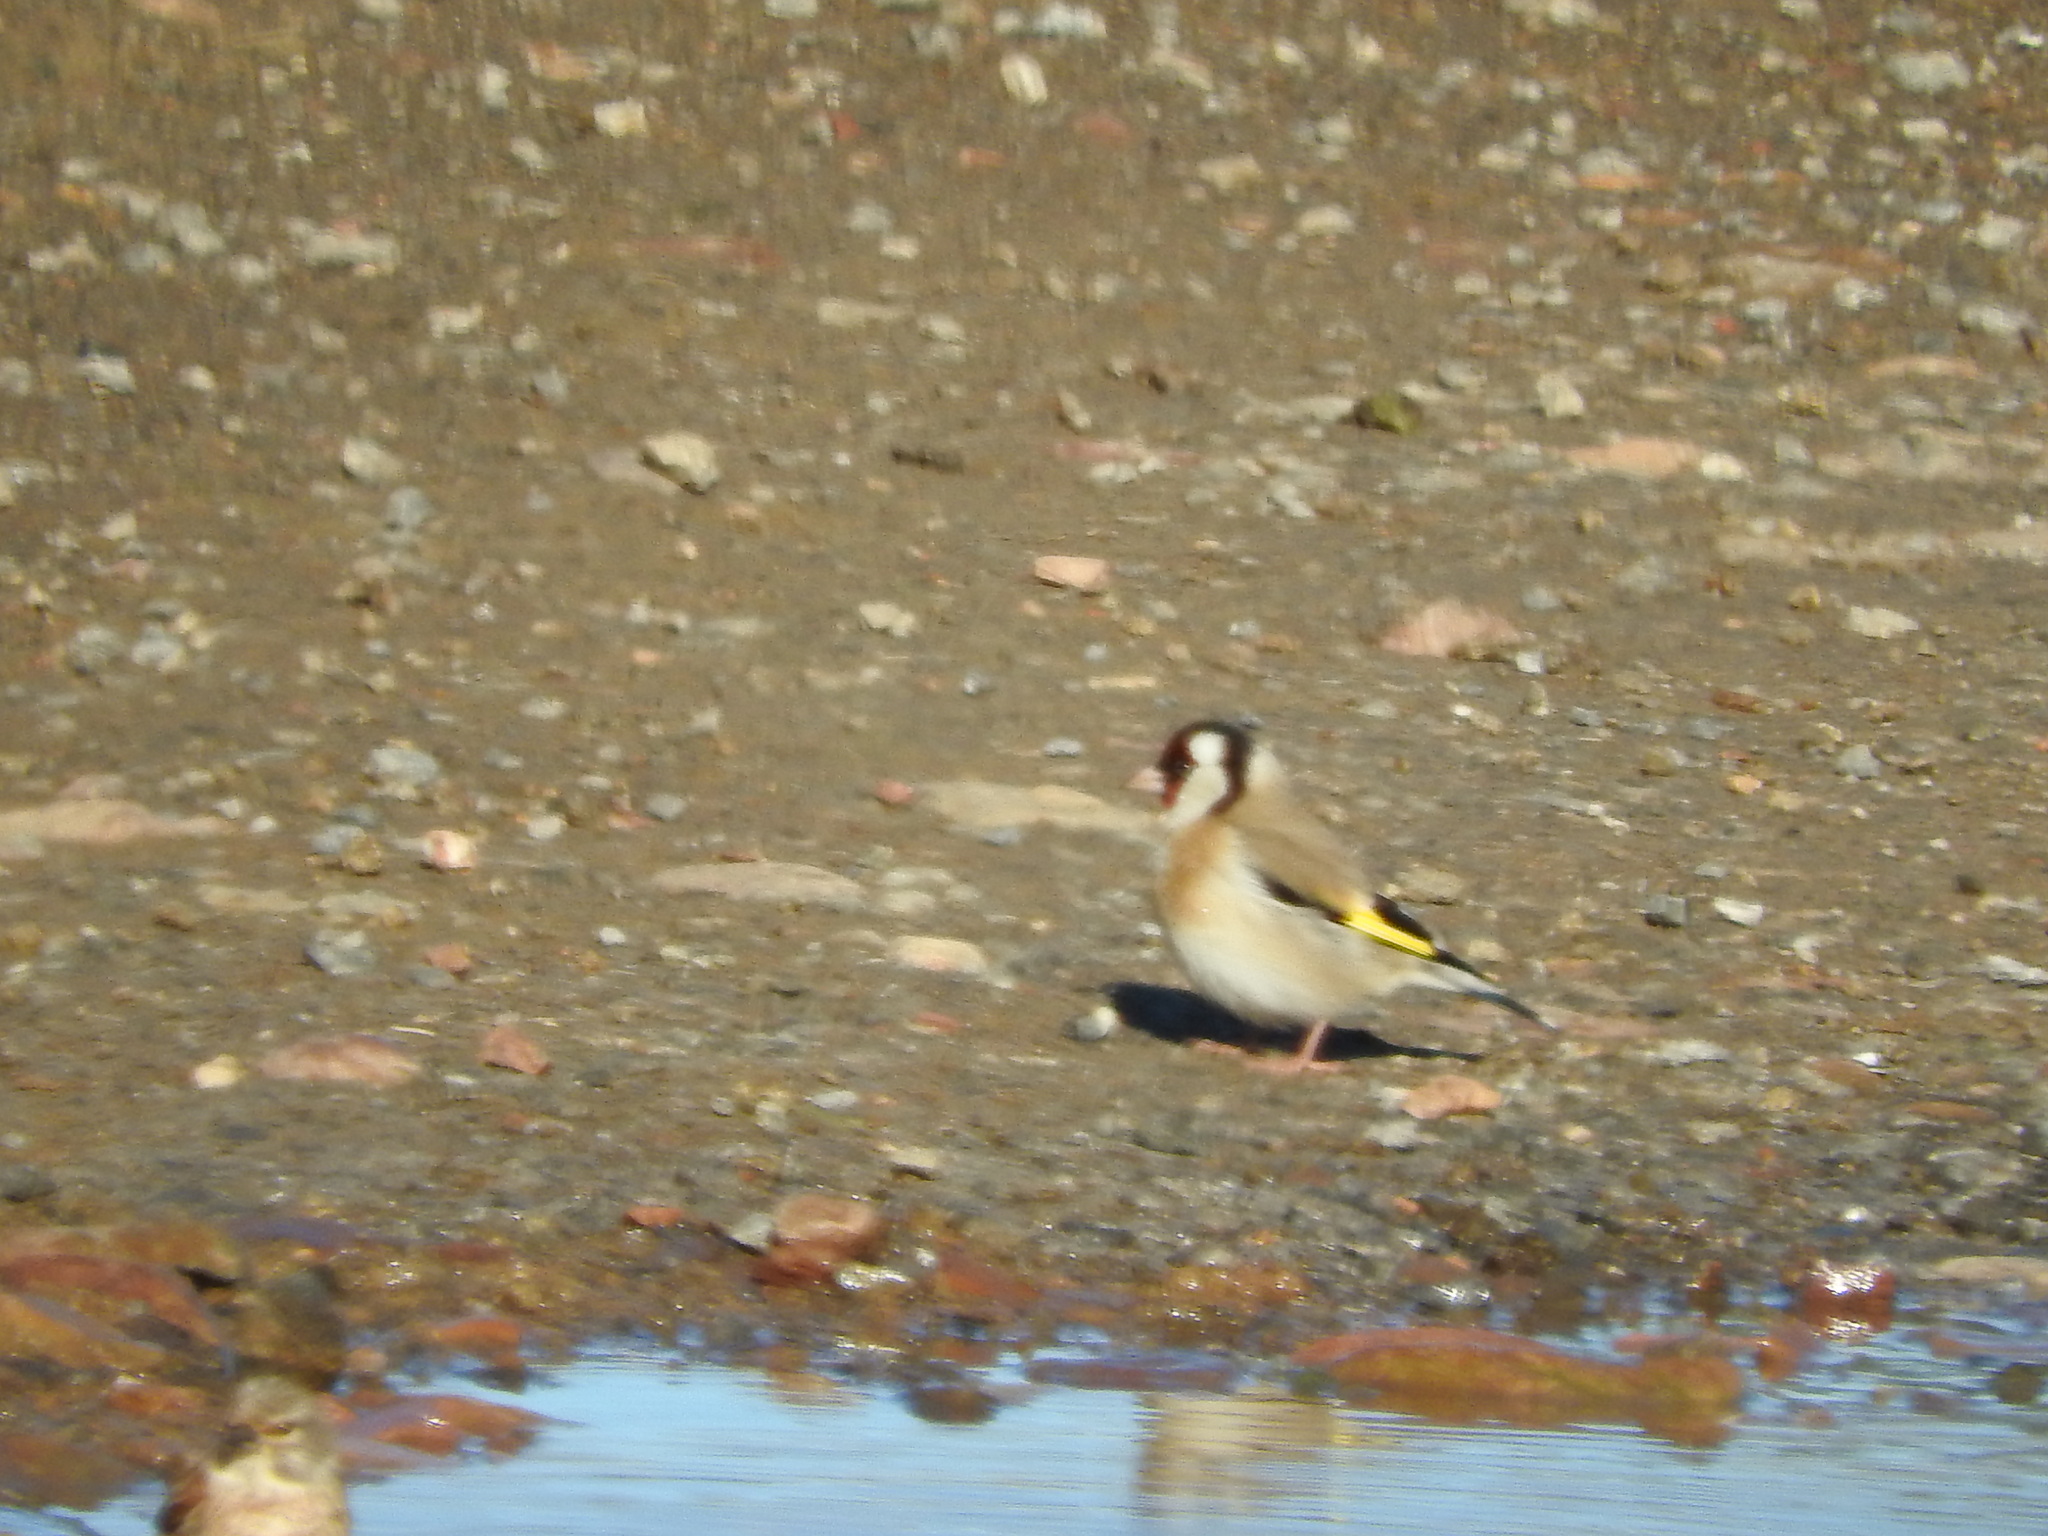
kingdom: Animalia
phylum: Chordata
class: Aves
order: Passeriformes
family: Fringillidae
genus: Carduelis
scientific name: Carduelis carduelis
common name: European goldfinch
